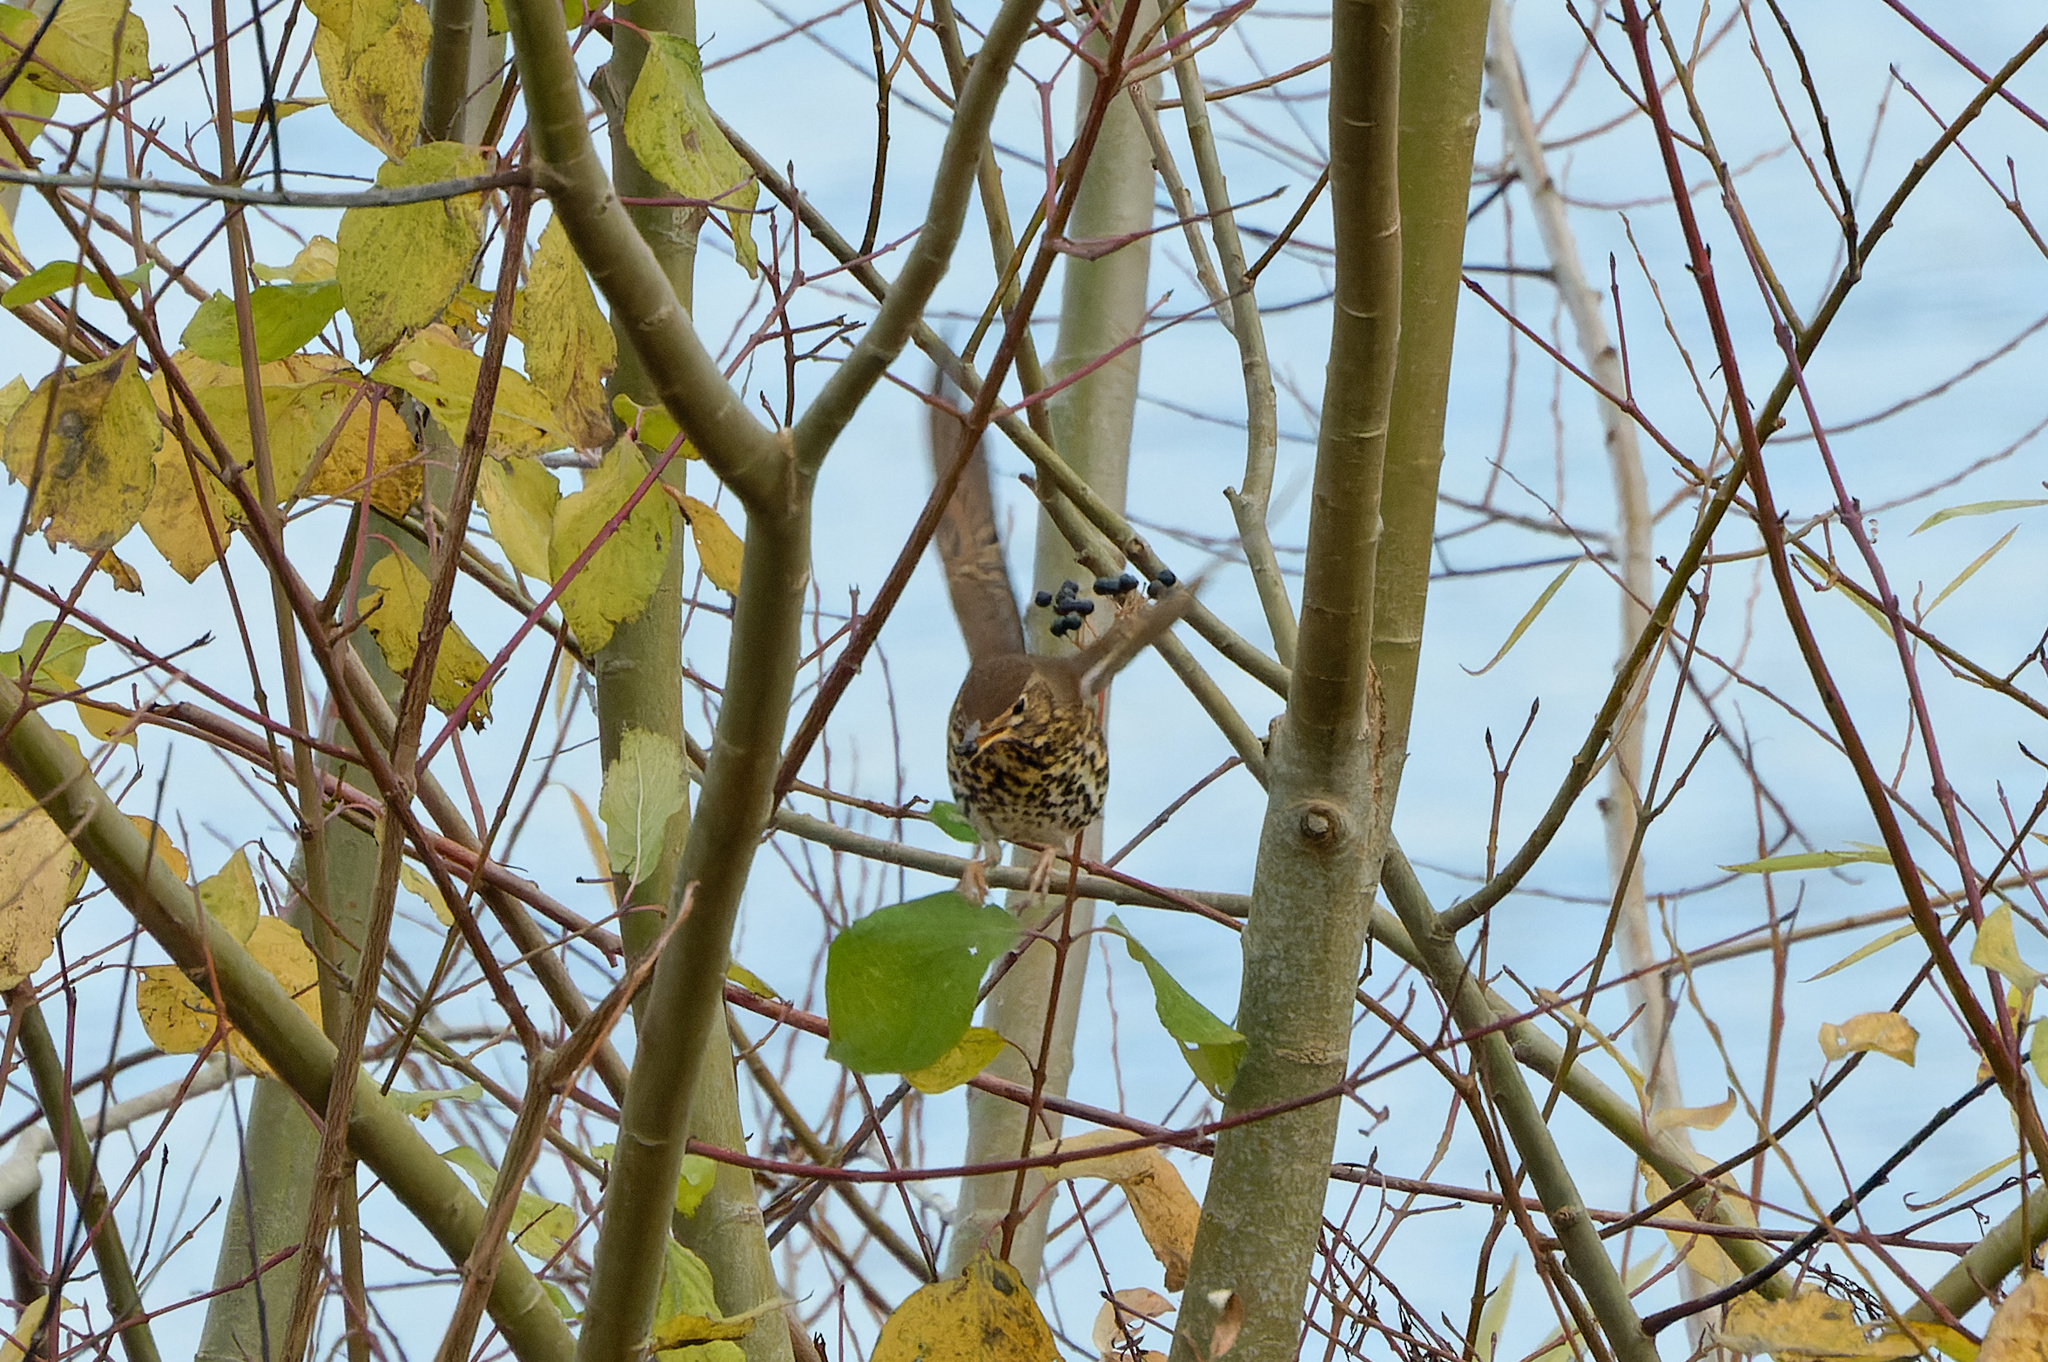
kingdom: Animalia
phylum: Chordata
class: Aves
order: Passeriformes
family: Turdidae
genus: Turdus
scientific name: Turdus philomelos
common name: Song thrush
